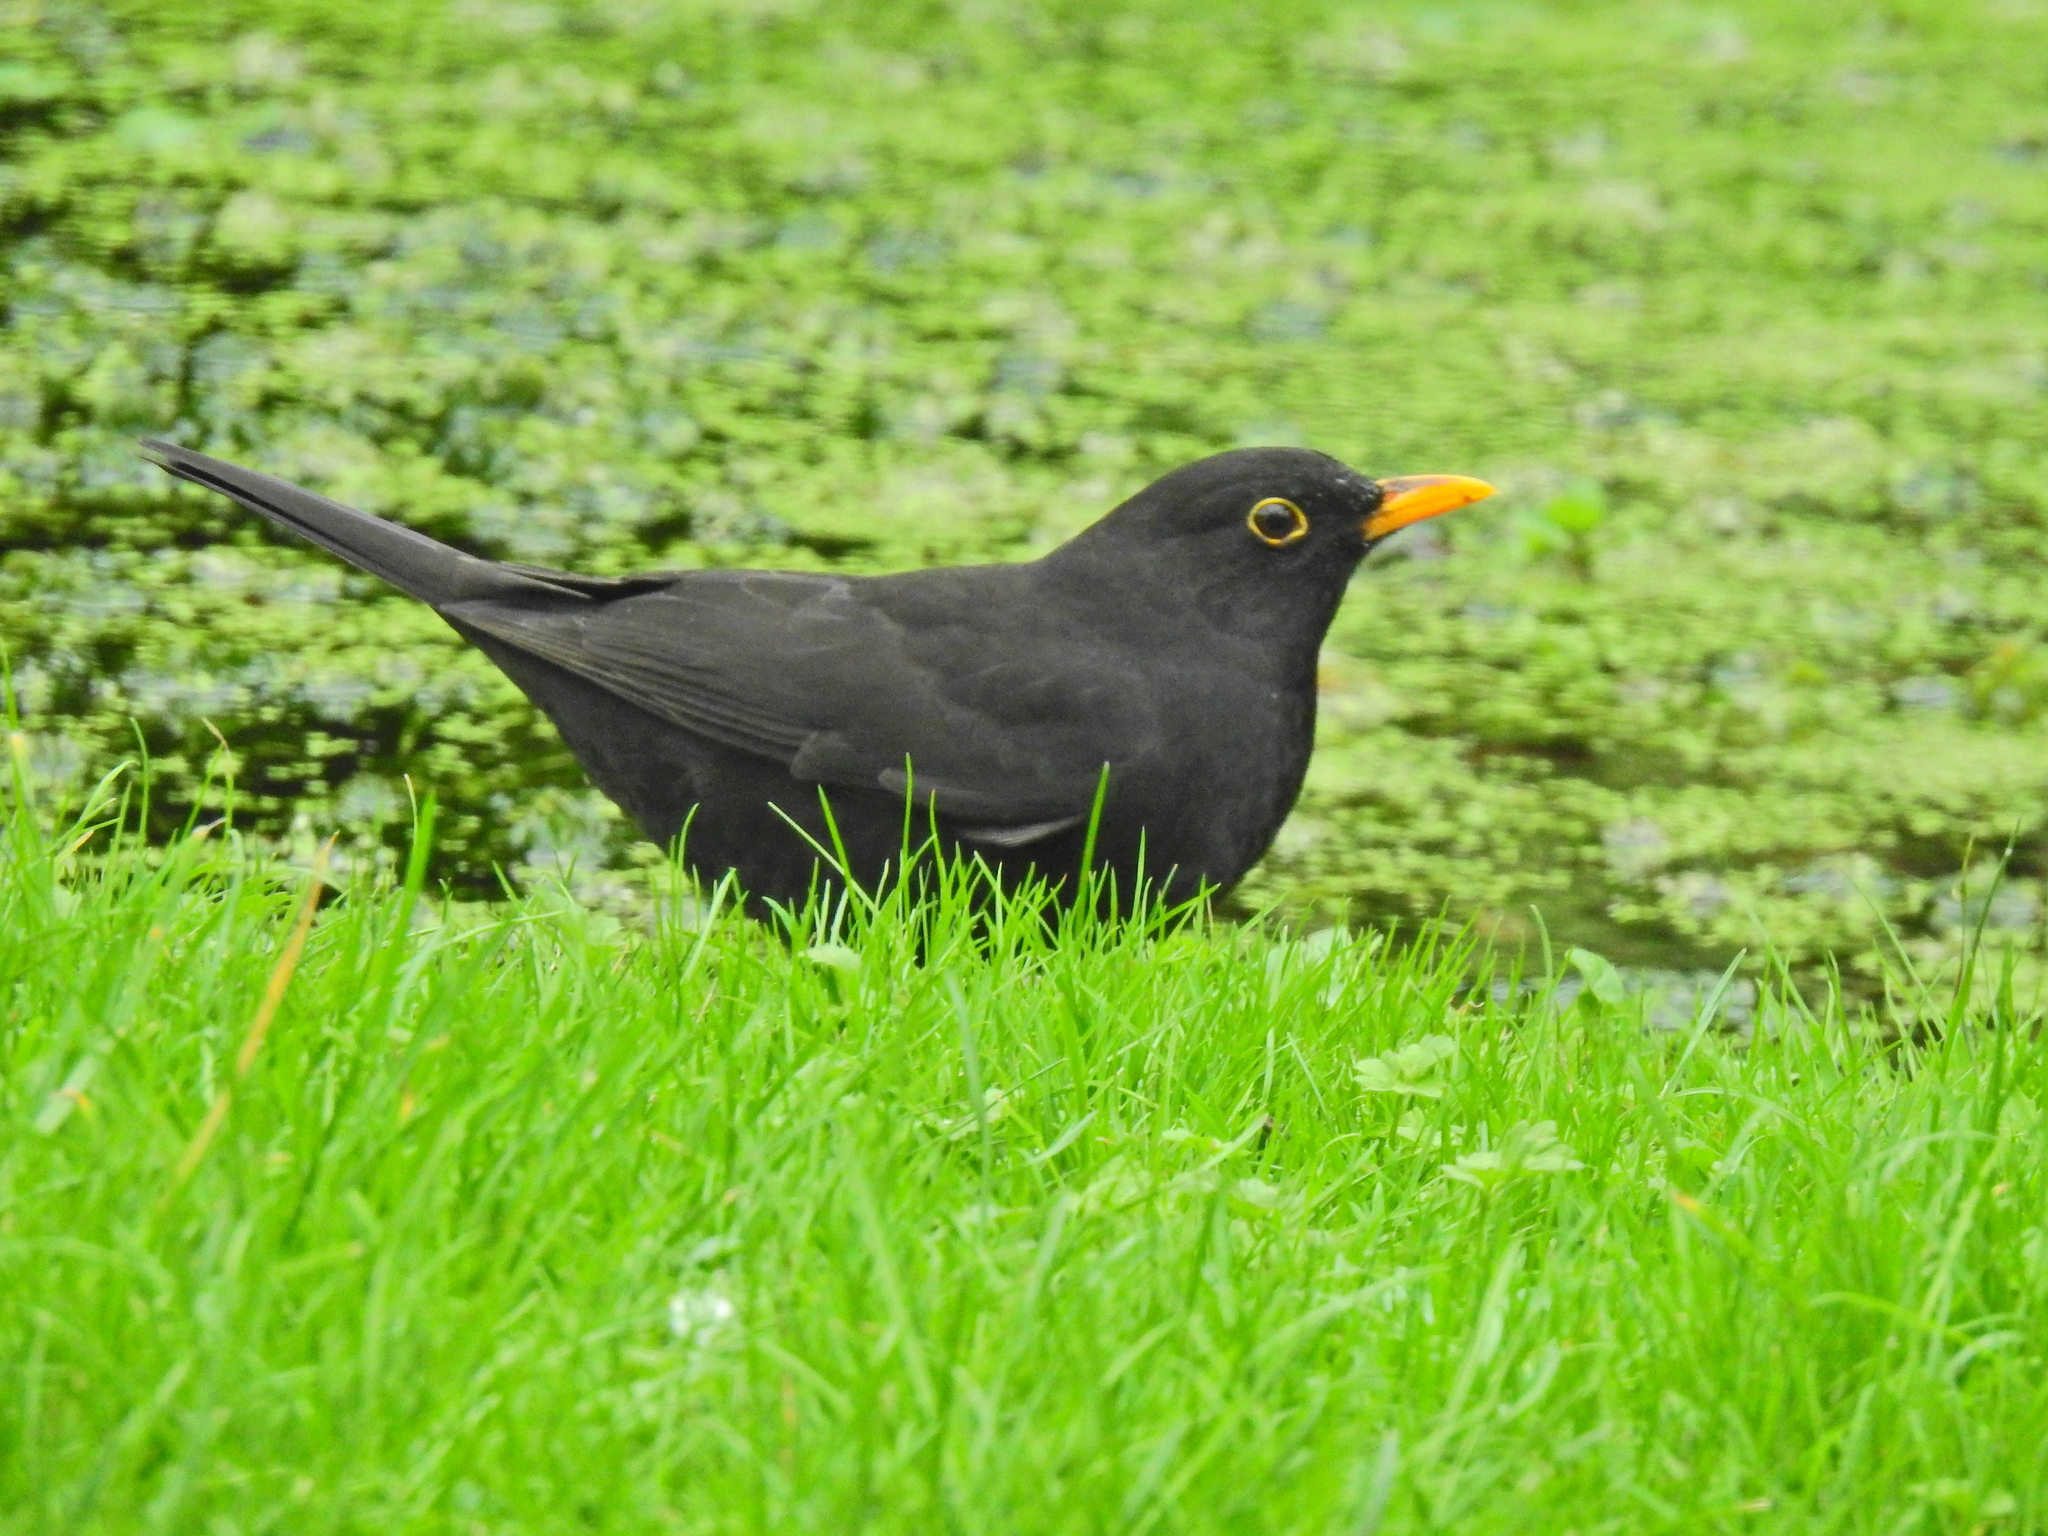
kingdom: Animalia
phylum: Chordata
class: Aves
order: Passeriformes
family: Turdidae
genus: Turdus
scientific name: Turdus merula
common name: Common blackbird
